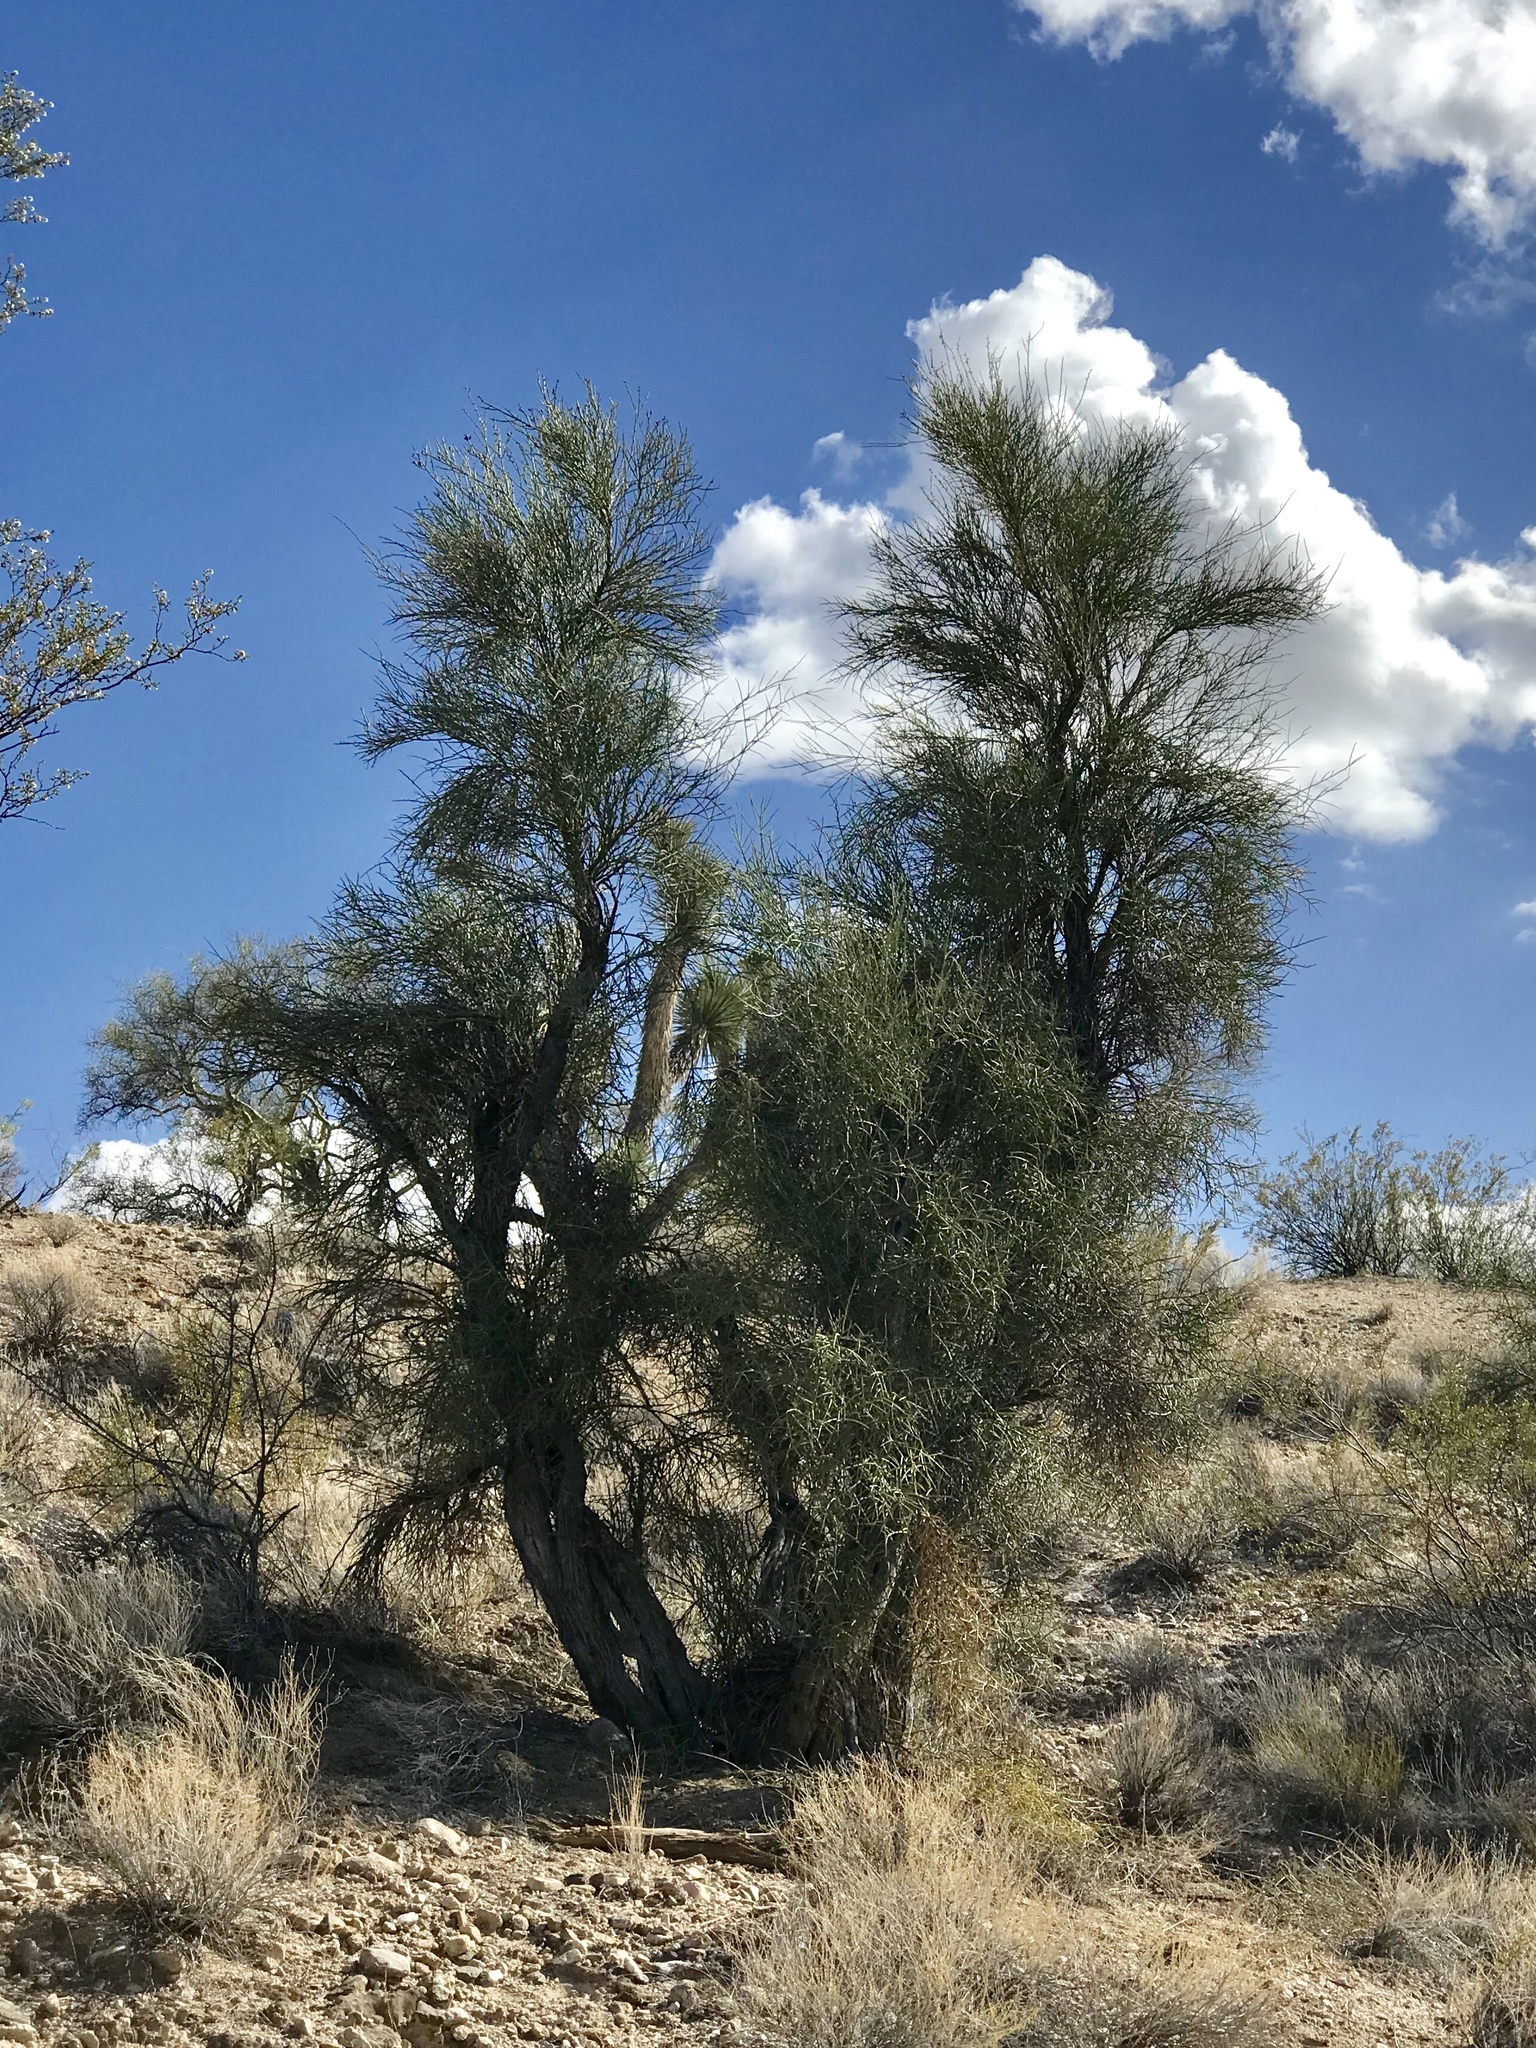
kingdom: Plantae
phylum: Tracheophyta
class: Magnoliopsida
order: Celastrales
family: Celastraceae
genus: Canotia
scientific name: Canotia holacantha
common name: Crucifixion thorns
